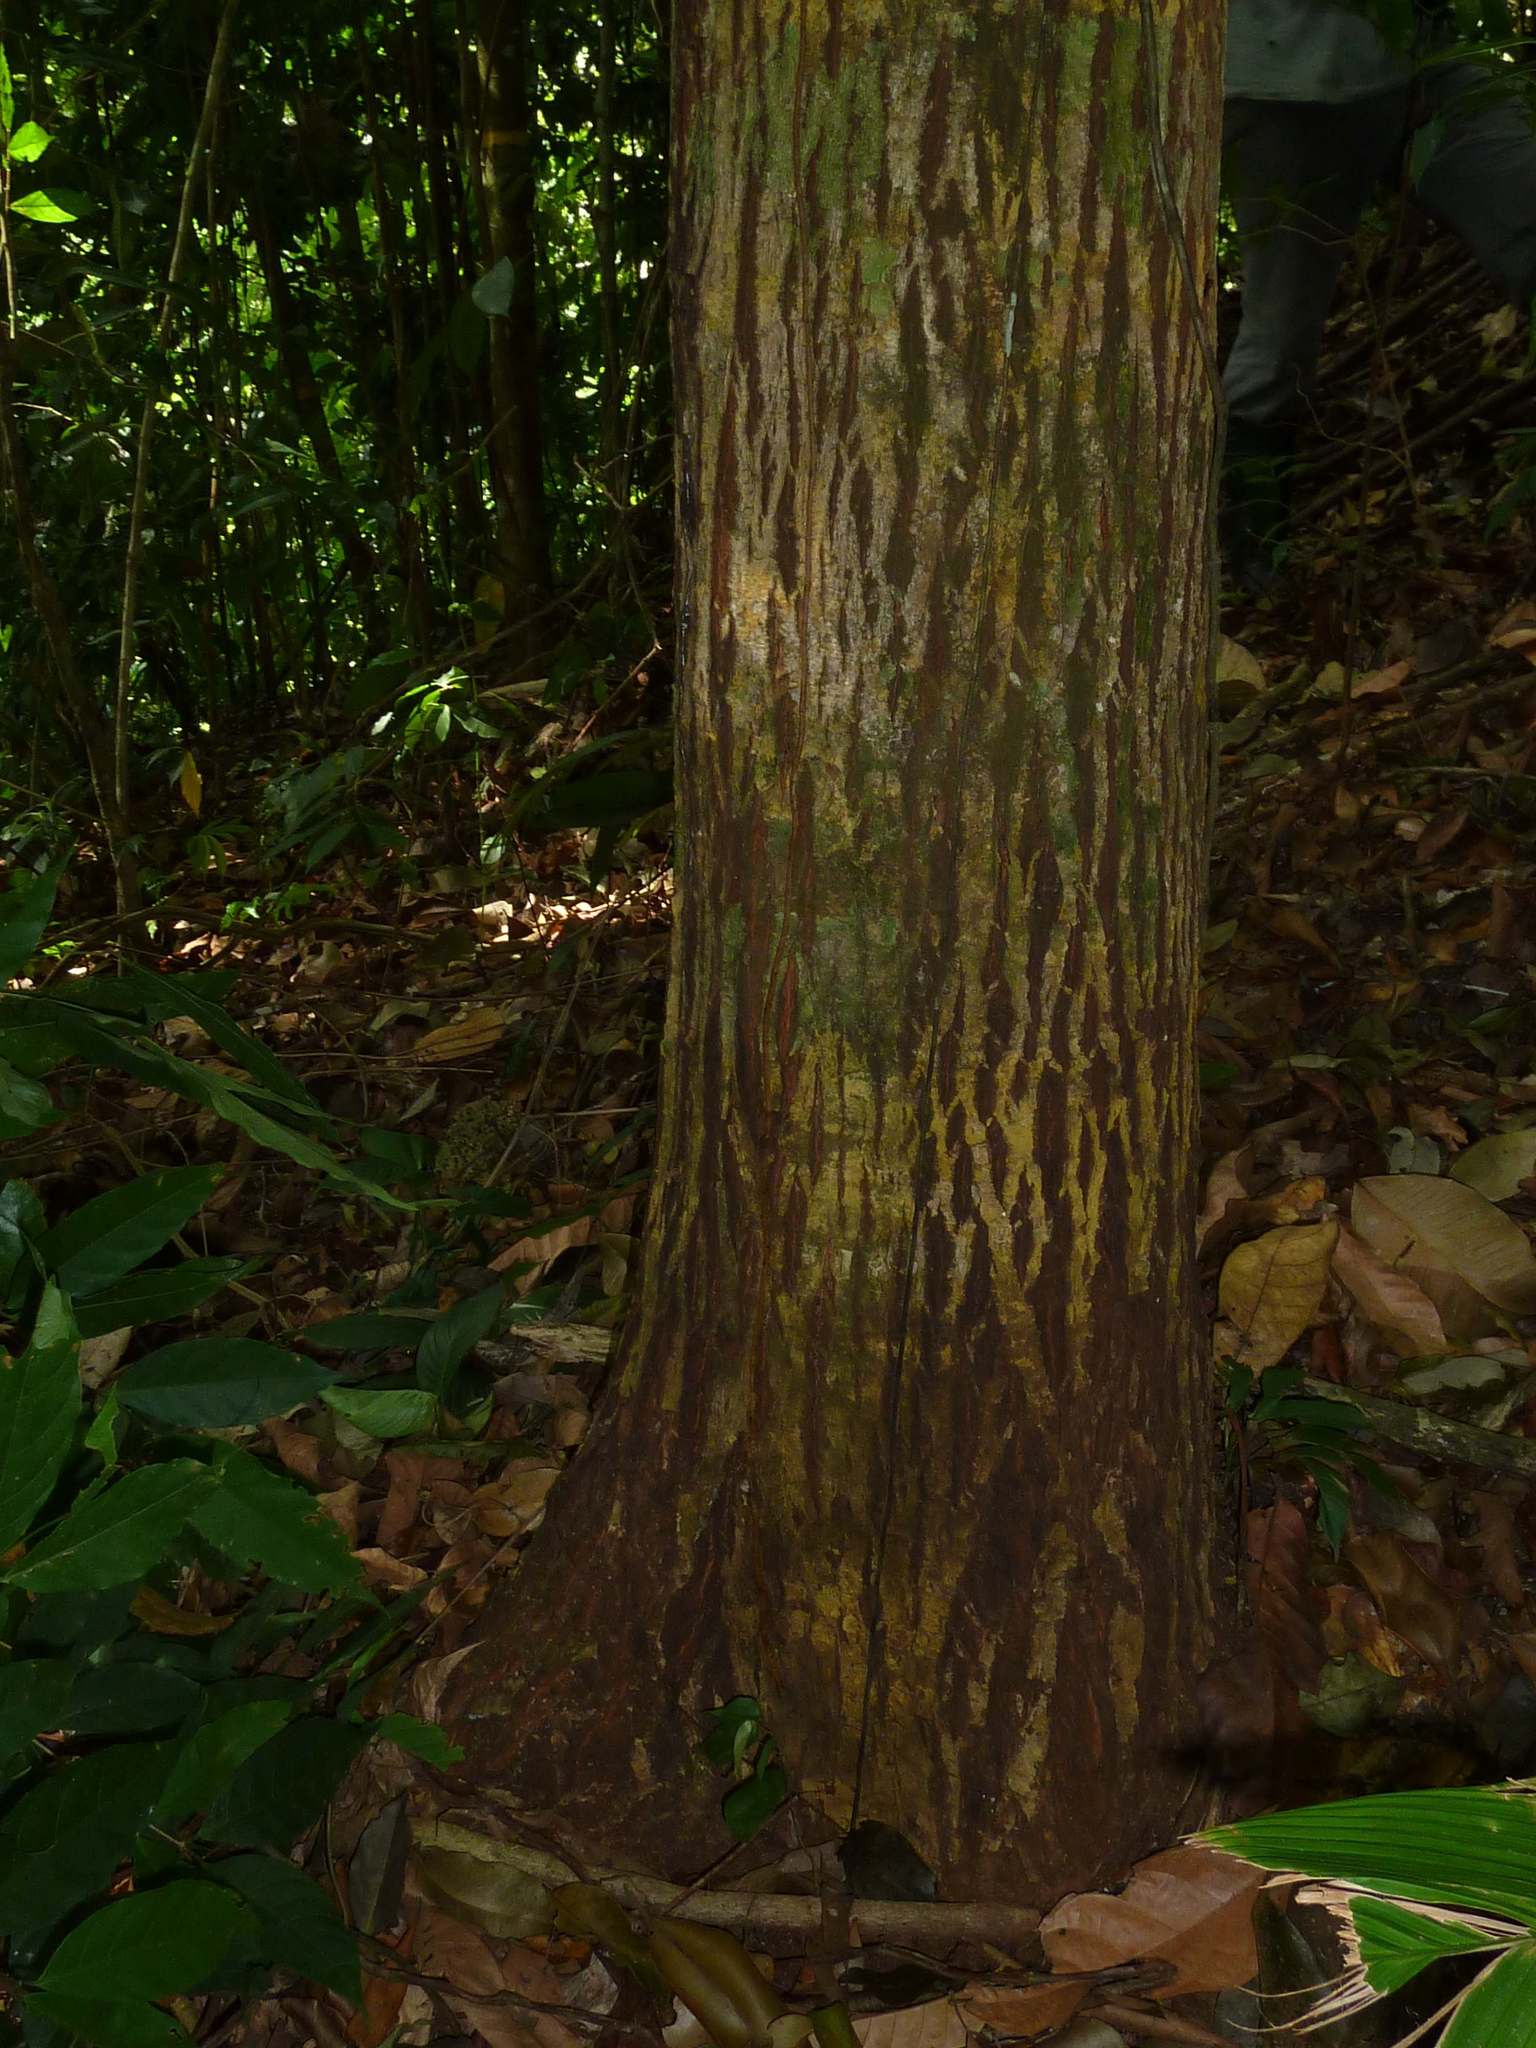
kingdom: Plantae
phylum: Tracheophyta
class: Magnoliopsida
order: Malpighiales
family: Calophyllaceae
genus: Calophyllum
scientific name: Calophyllum mesoamericanum
